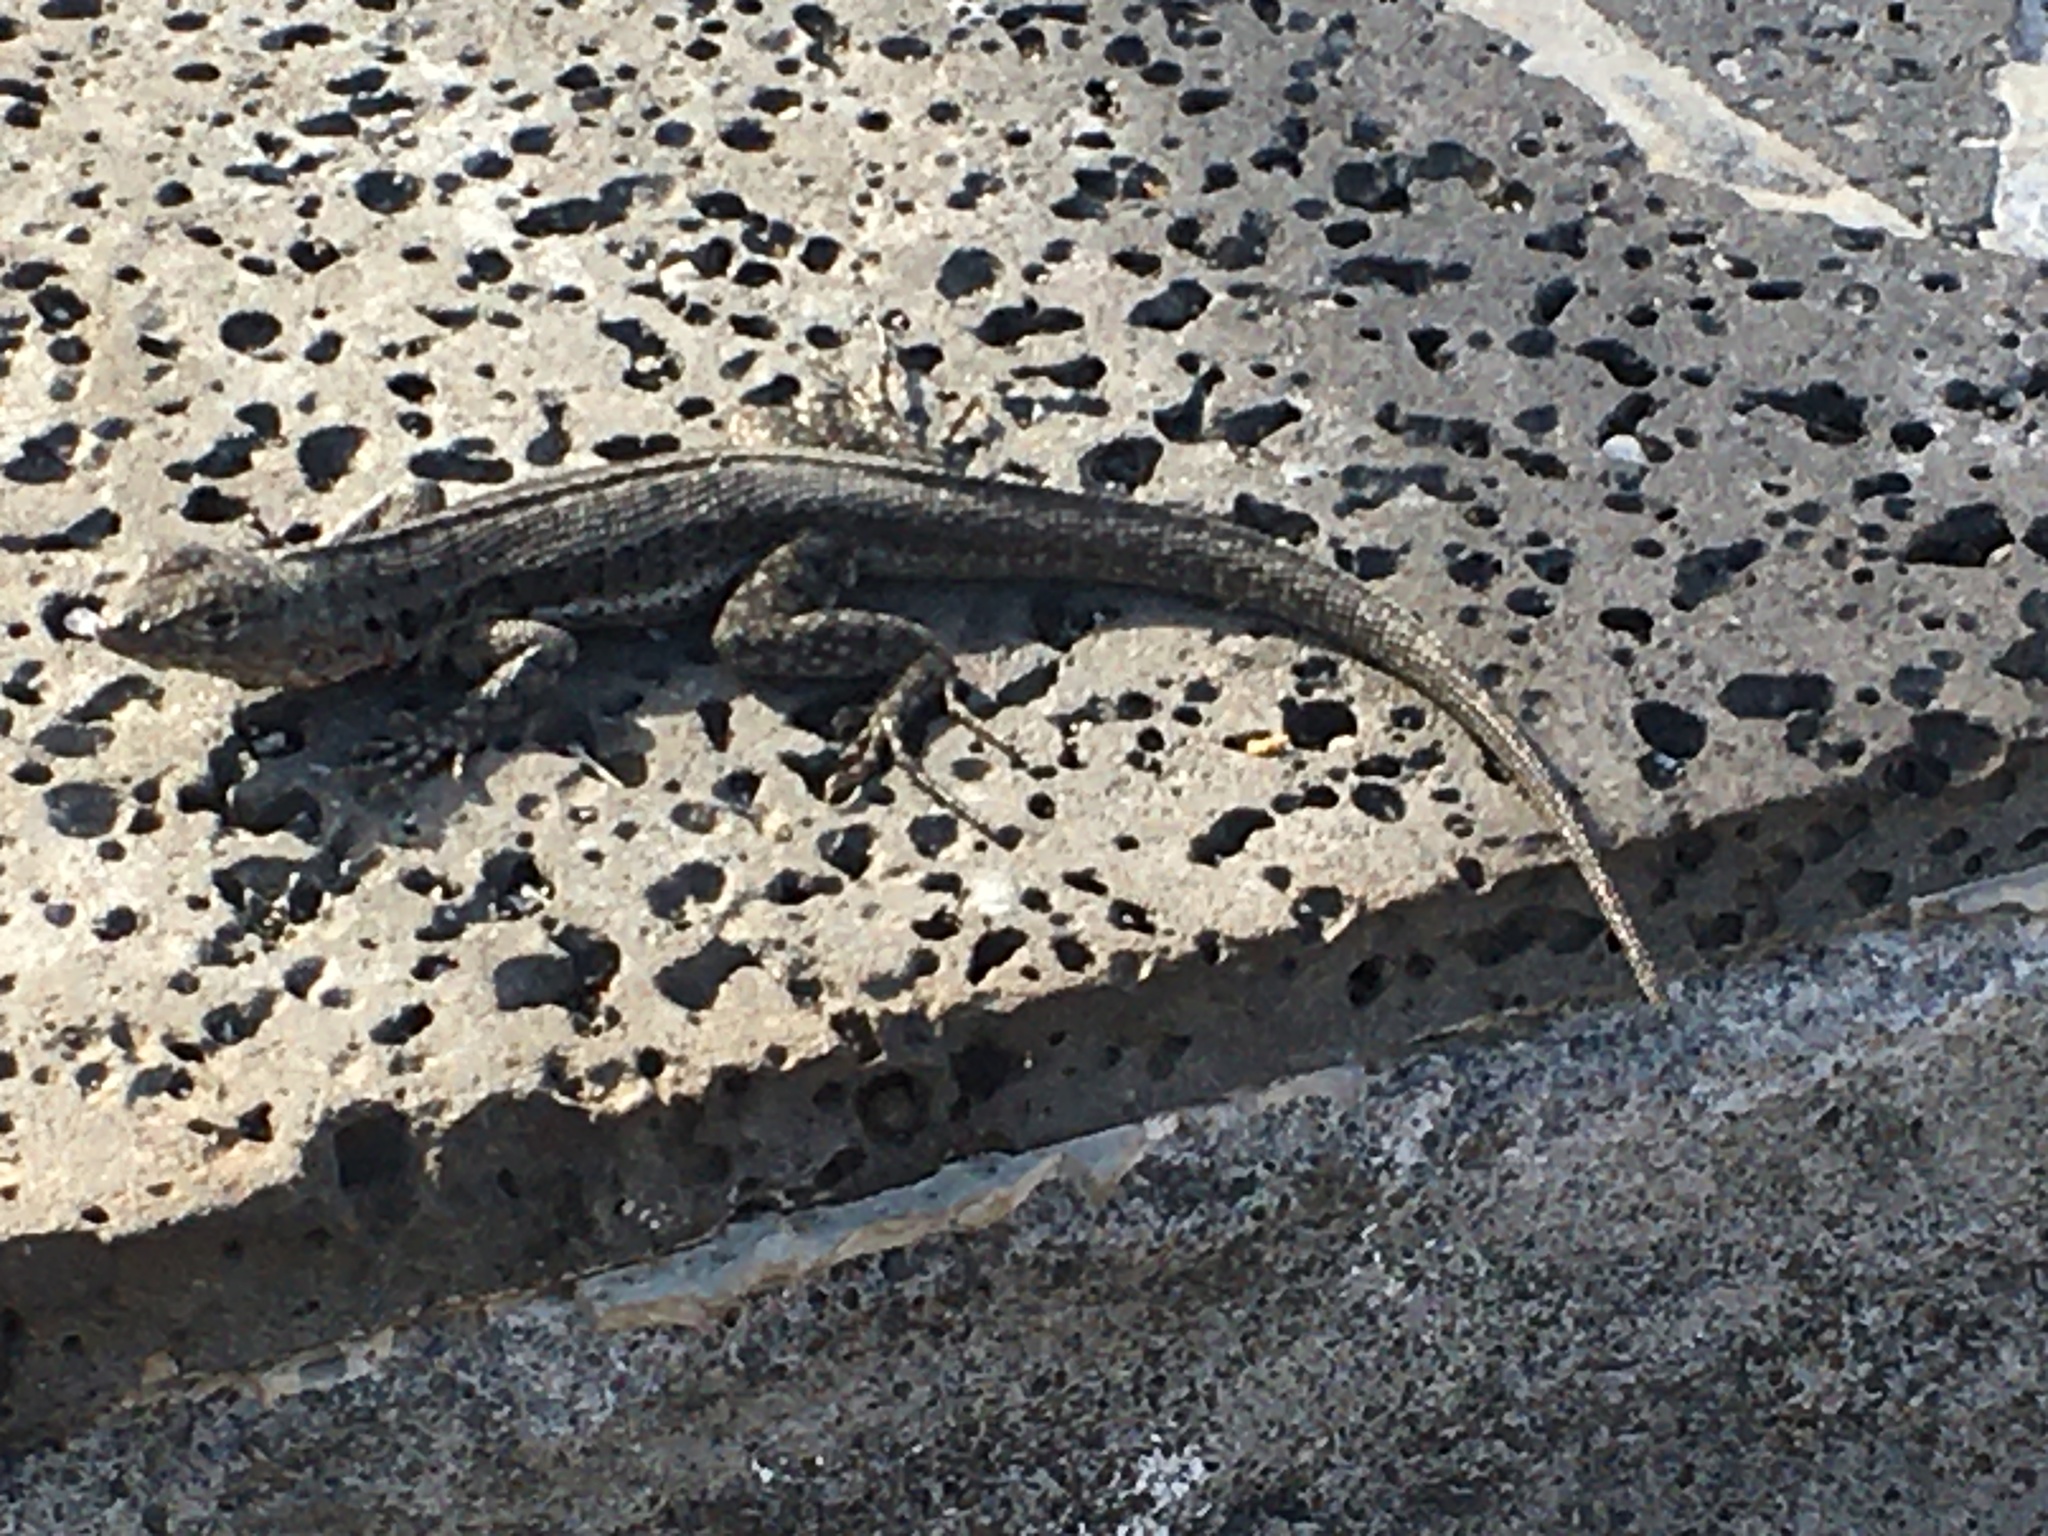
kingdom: Animalia
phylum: Chordata
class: Squamata
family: Tropiduridae
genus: Microlophus
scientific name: Microlophus jacobii
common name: Santiago lava lizard
